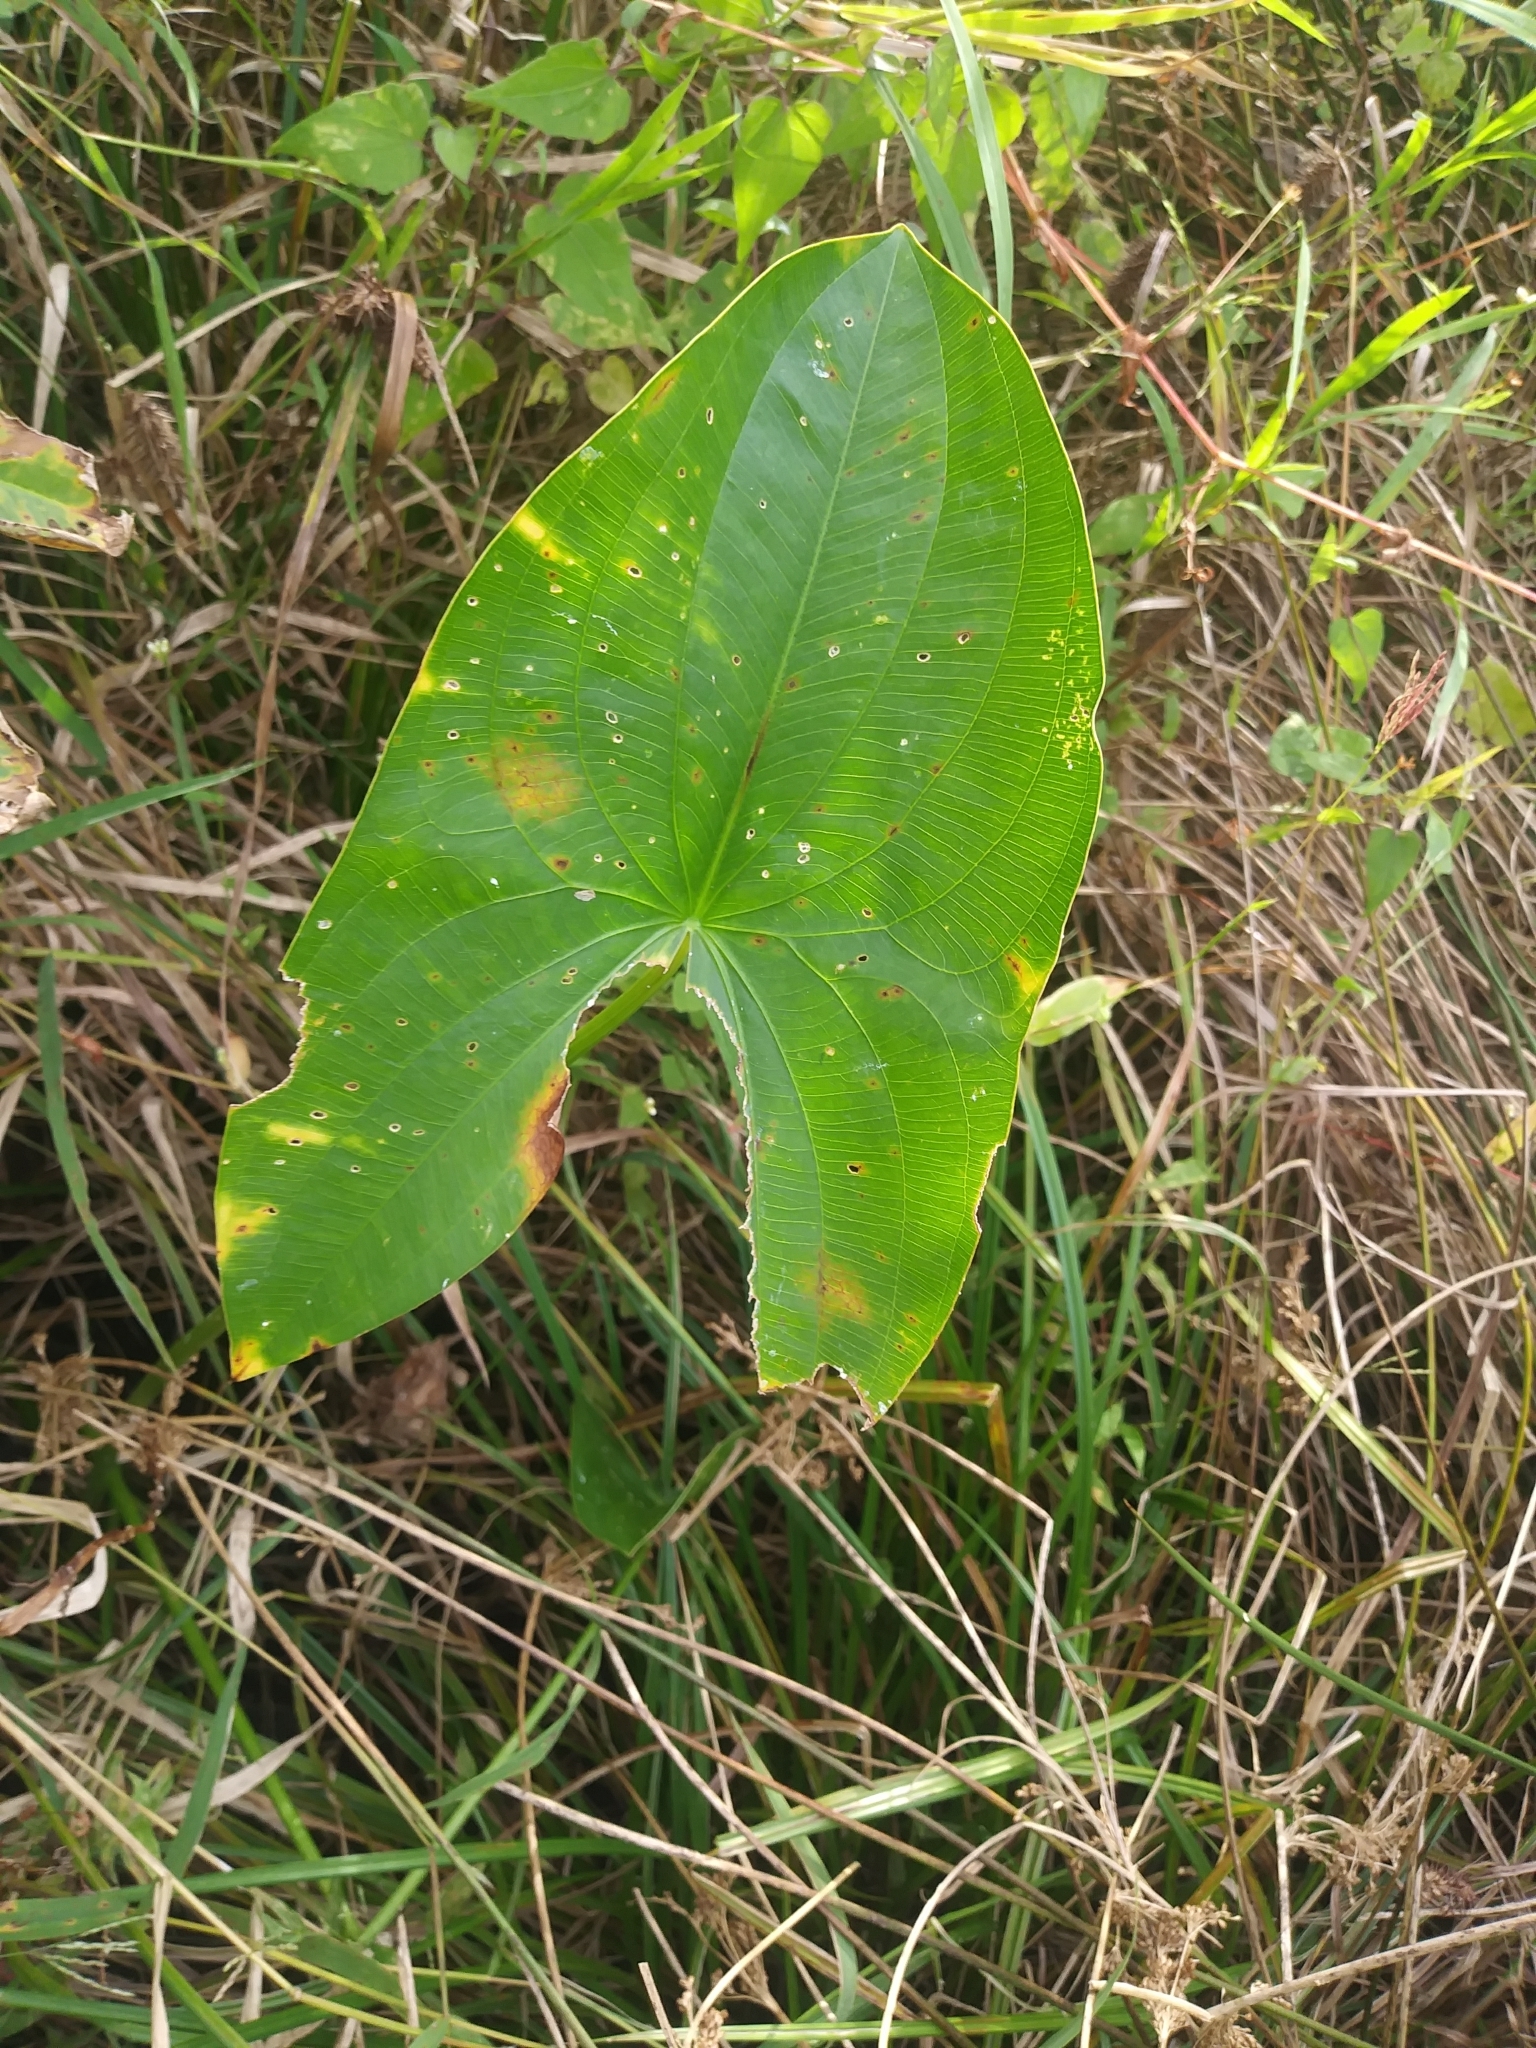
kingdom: Plantae
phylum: Tracheophyta
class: Liliopsida
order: Alismatales
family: Alismataceae
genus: Sagittaria
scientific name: Sagittaria latifolia
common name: Duck-potato
